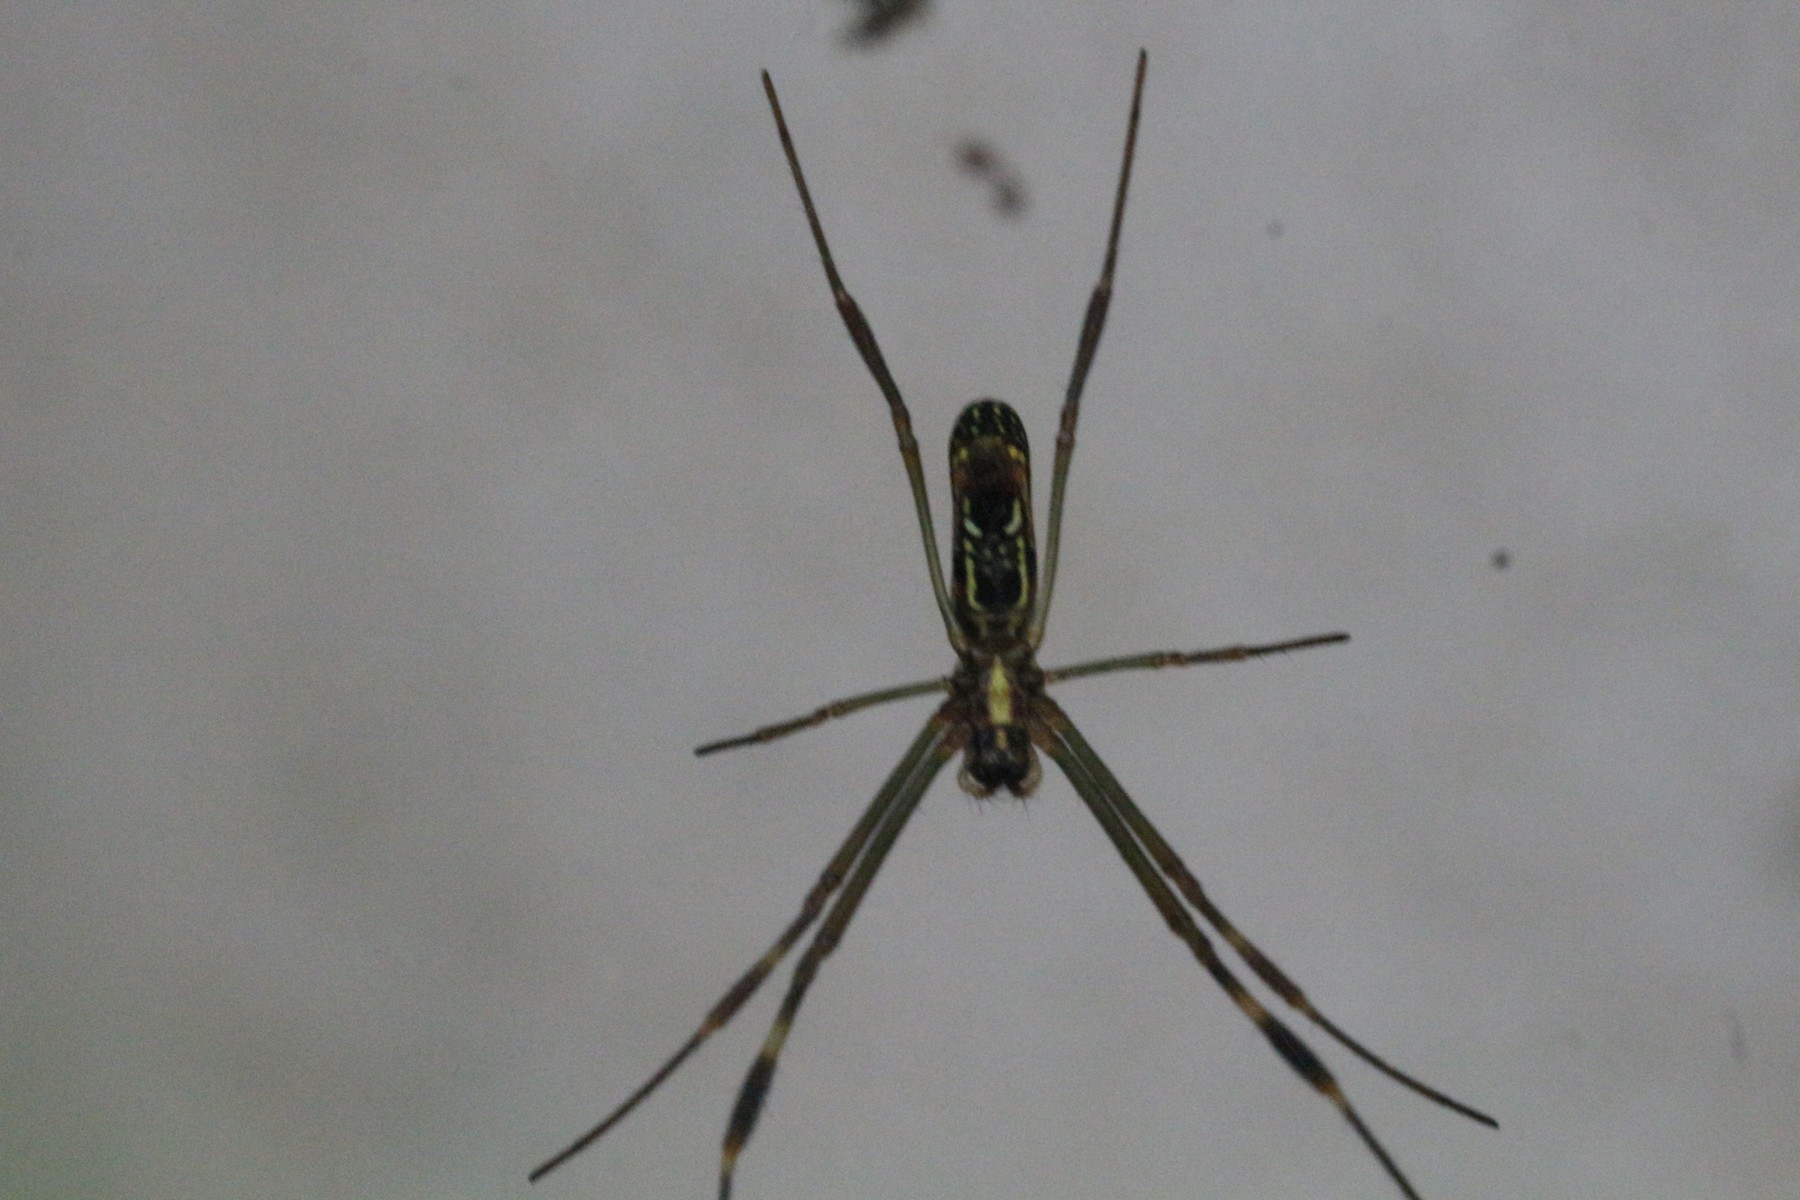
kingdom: Animalia
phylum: Arthropoda
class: Arachnida
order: Araneae
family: Araneidae
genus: Trichonephila
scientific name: Trichonephila clavipes
